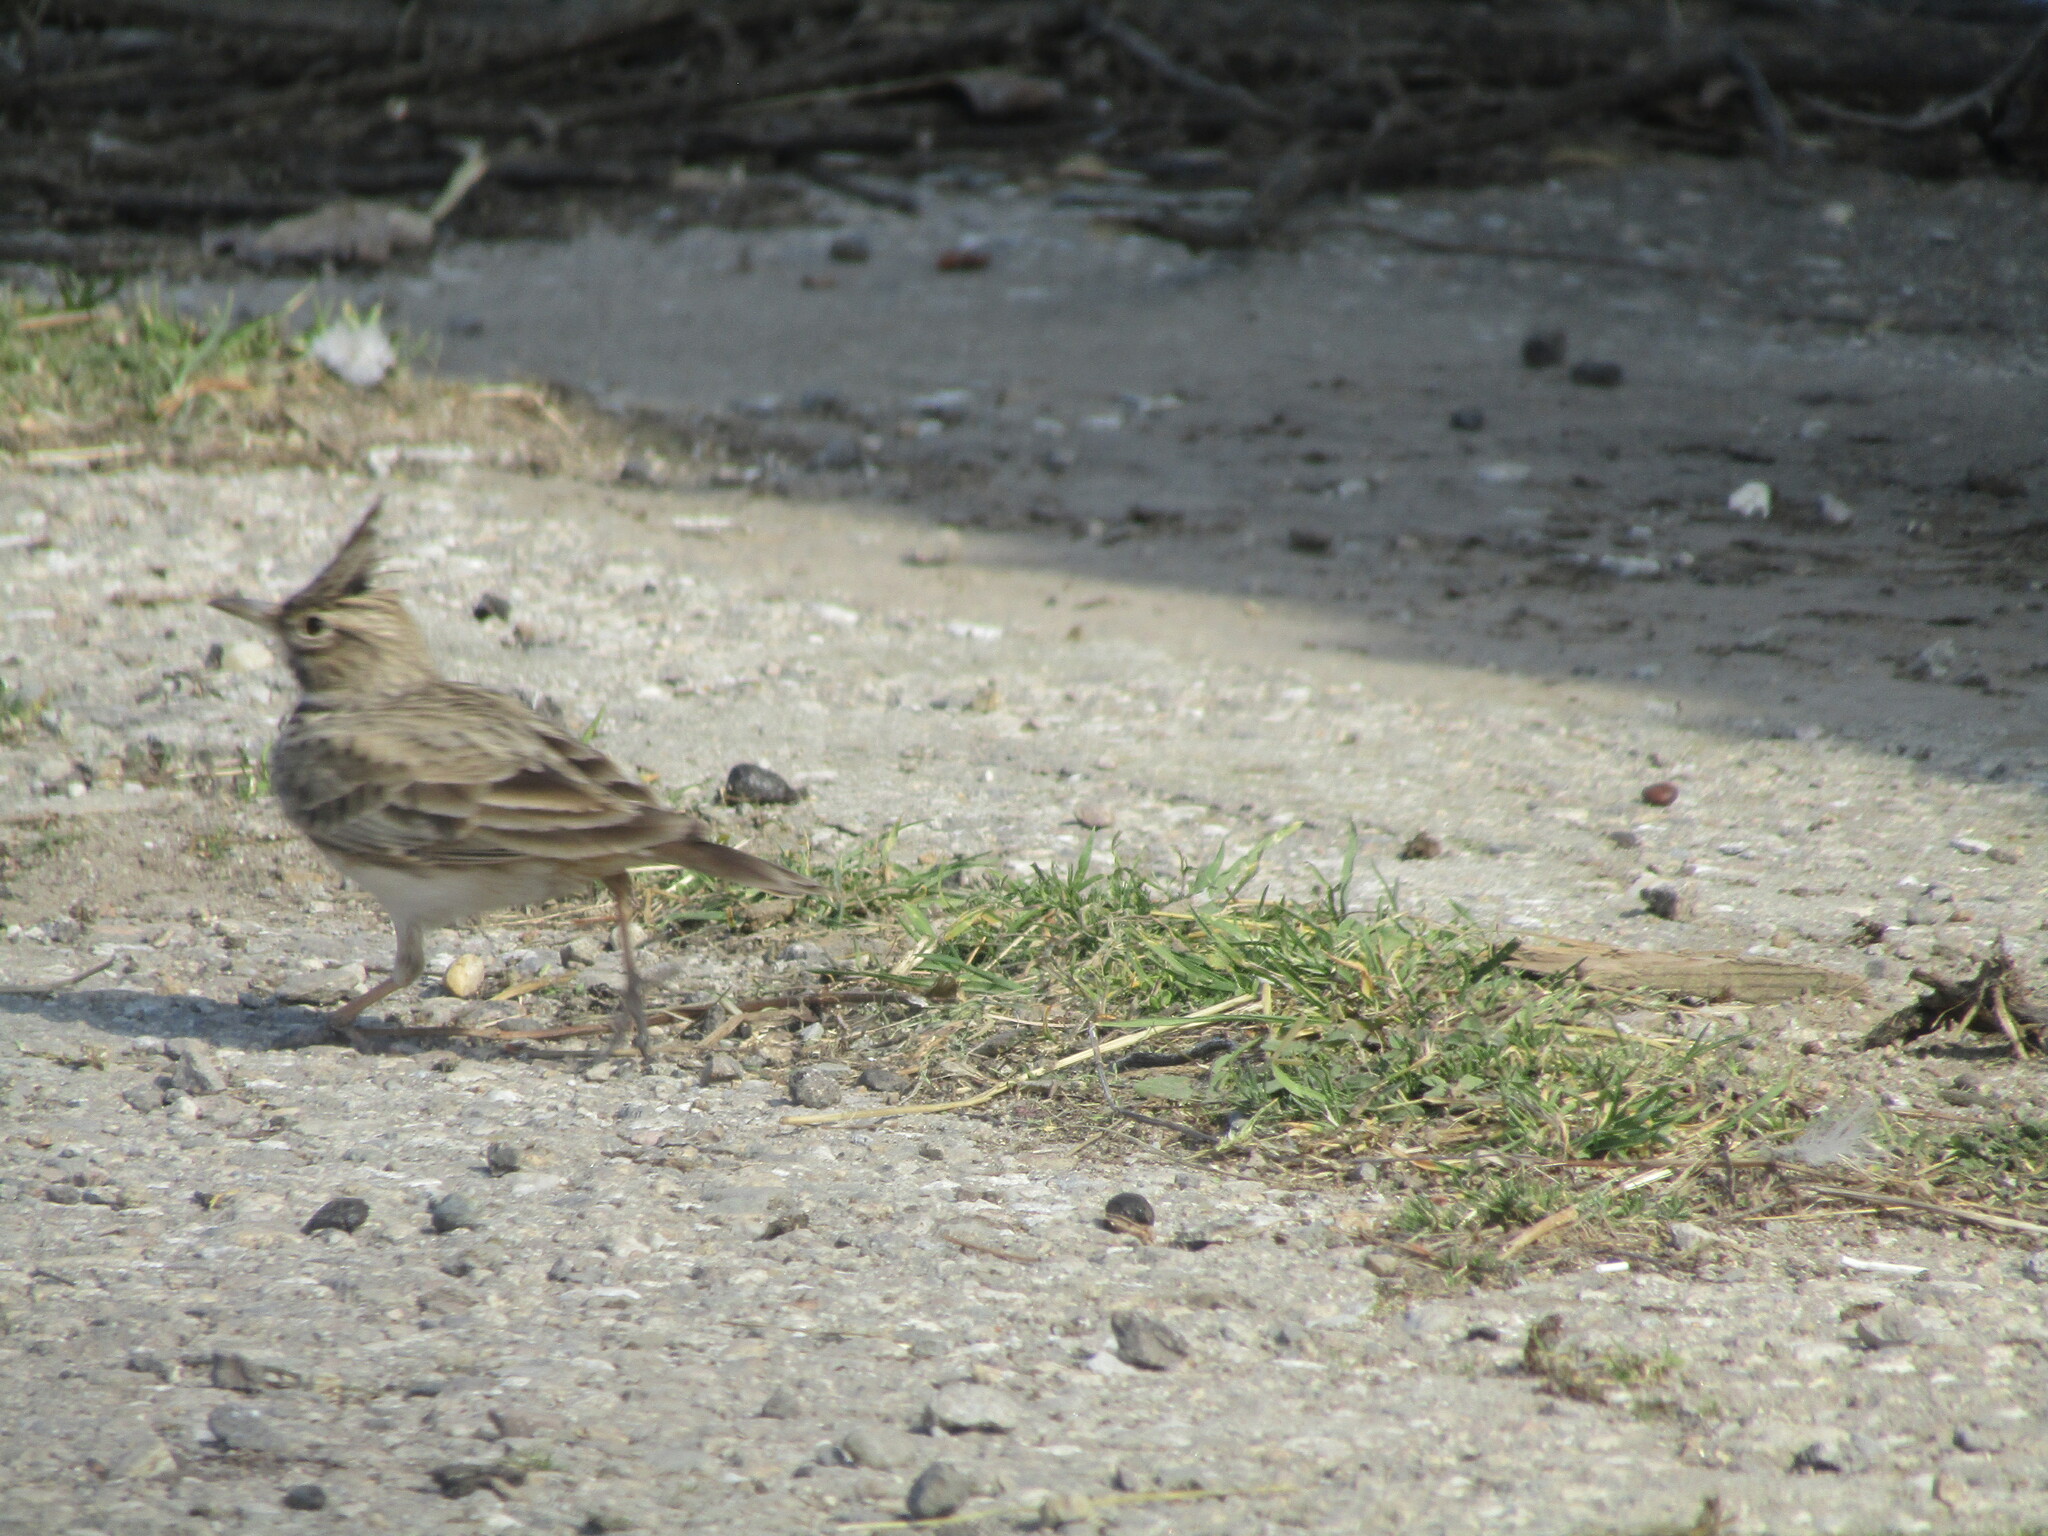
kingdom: Animalia
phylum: Chordata
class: Aves
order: Passeriformes
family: Alaudidae
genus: Galerida
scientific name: Galerida cristata
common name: Crested lark
